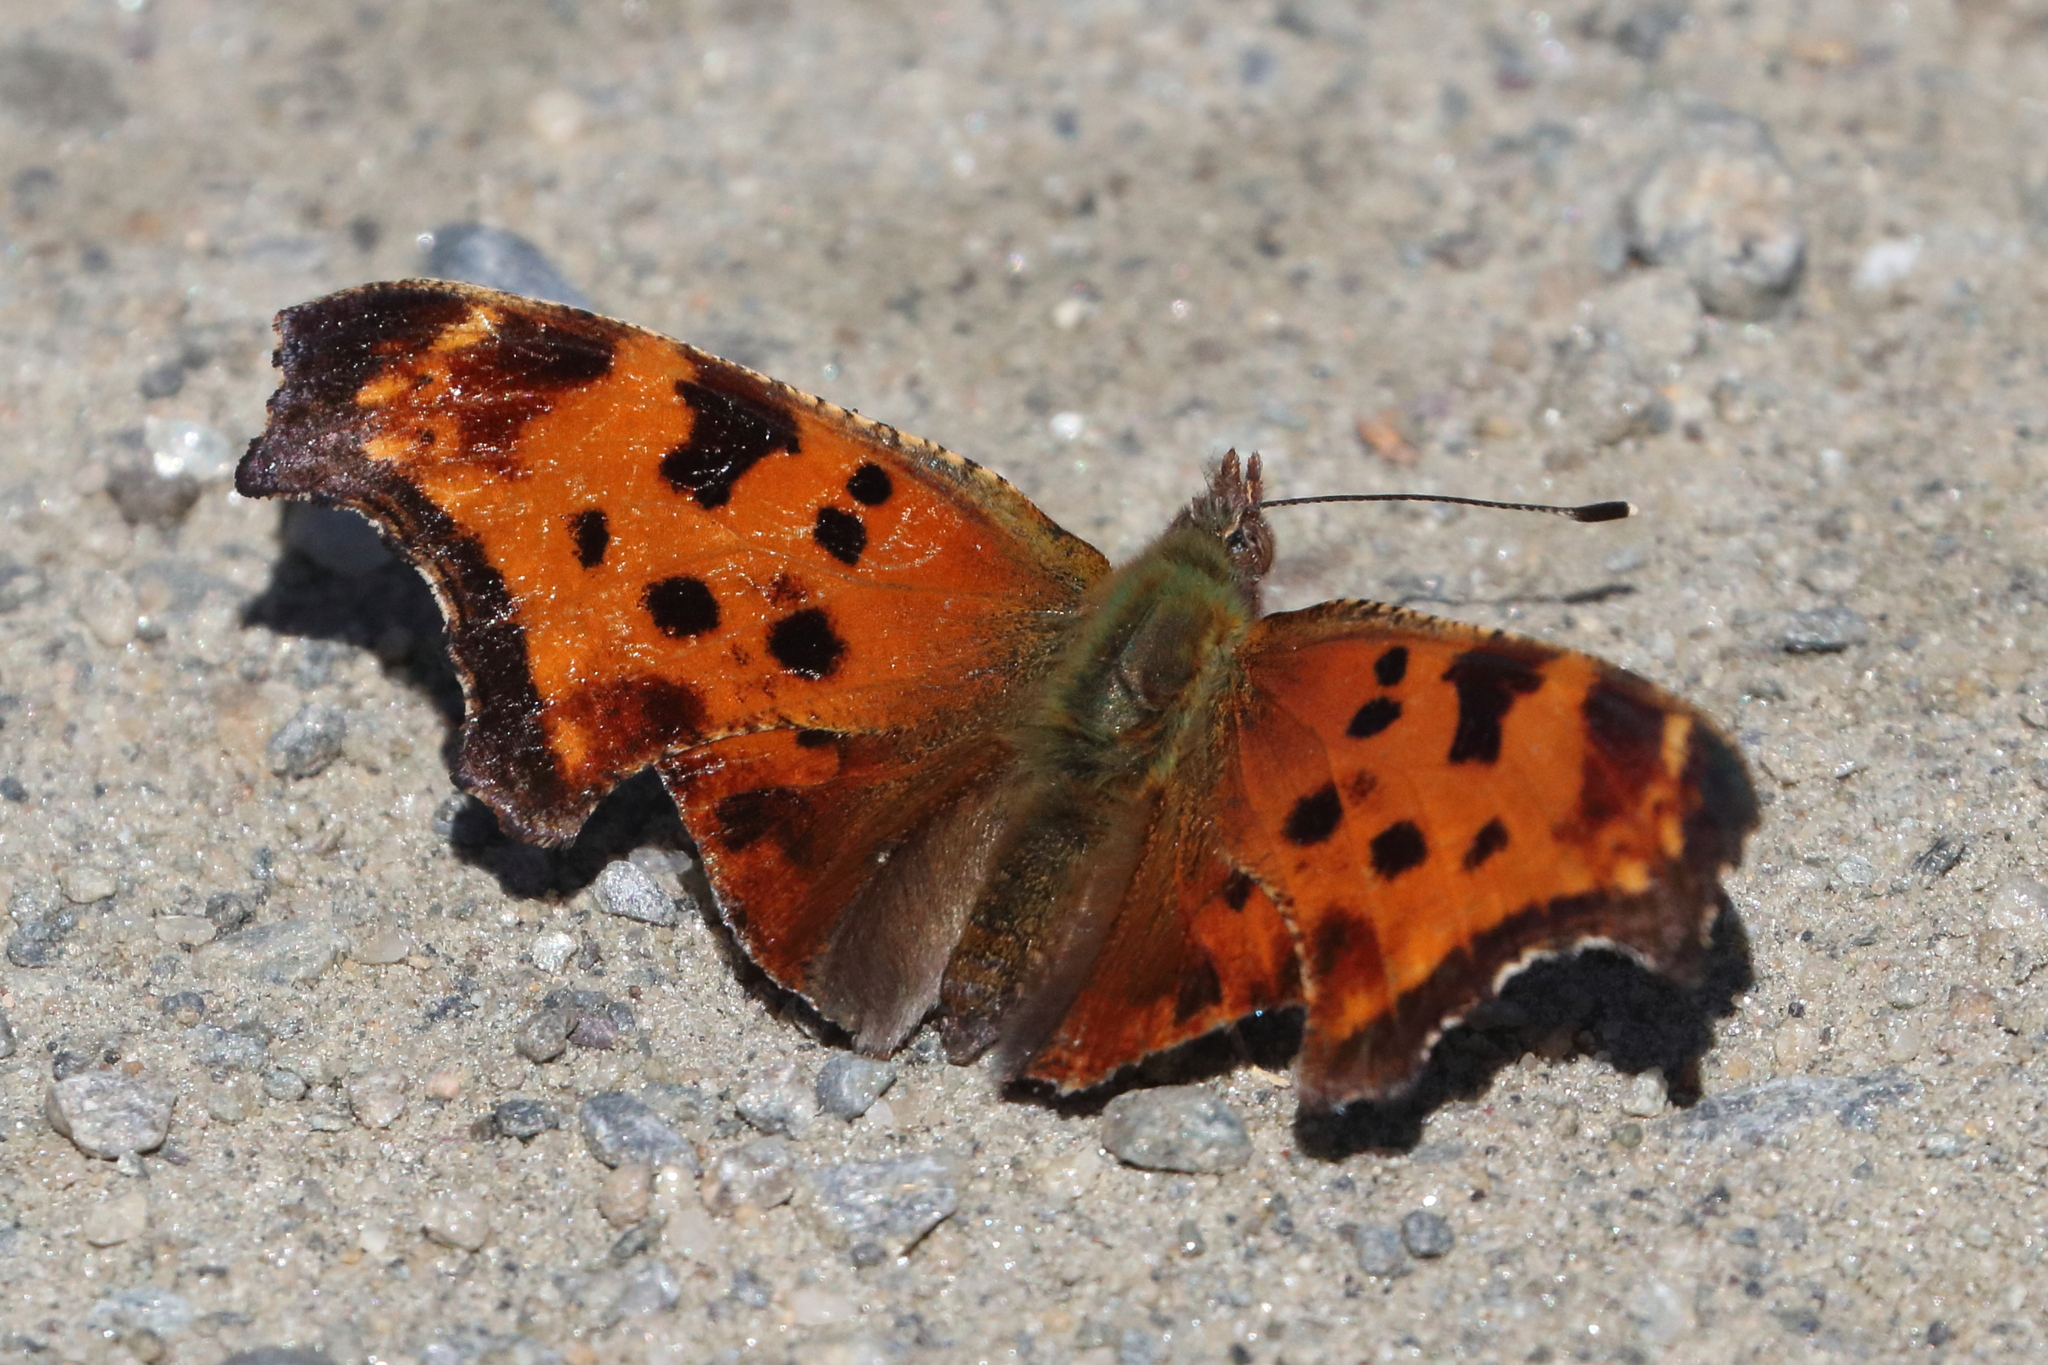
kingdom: Animalia
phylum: Arthropoda
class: Insecta
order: Lepidoptera
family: Nymphalidae
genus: Polygonia
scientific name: Polygonia comma
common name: Eastern comma
